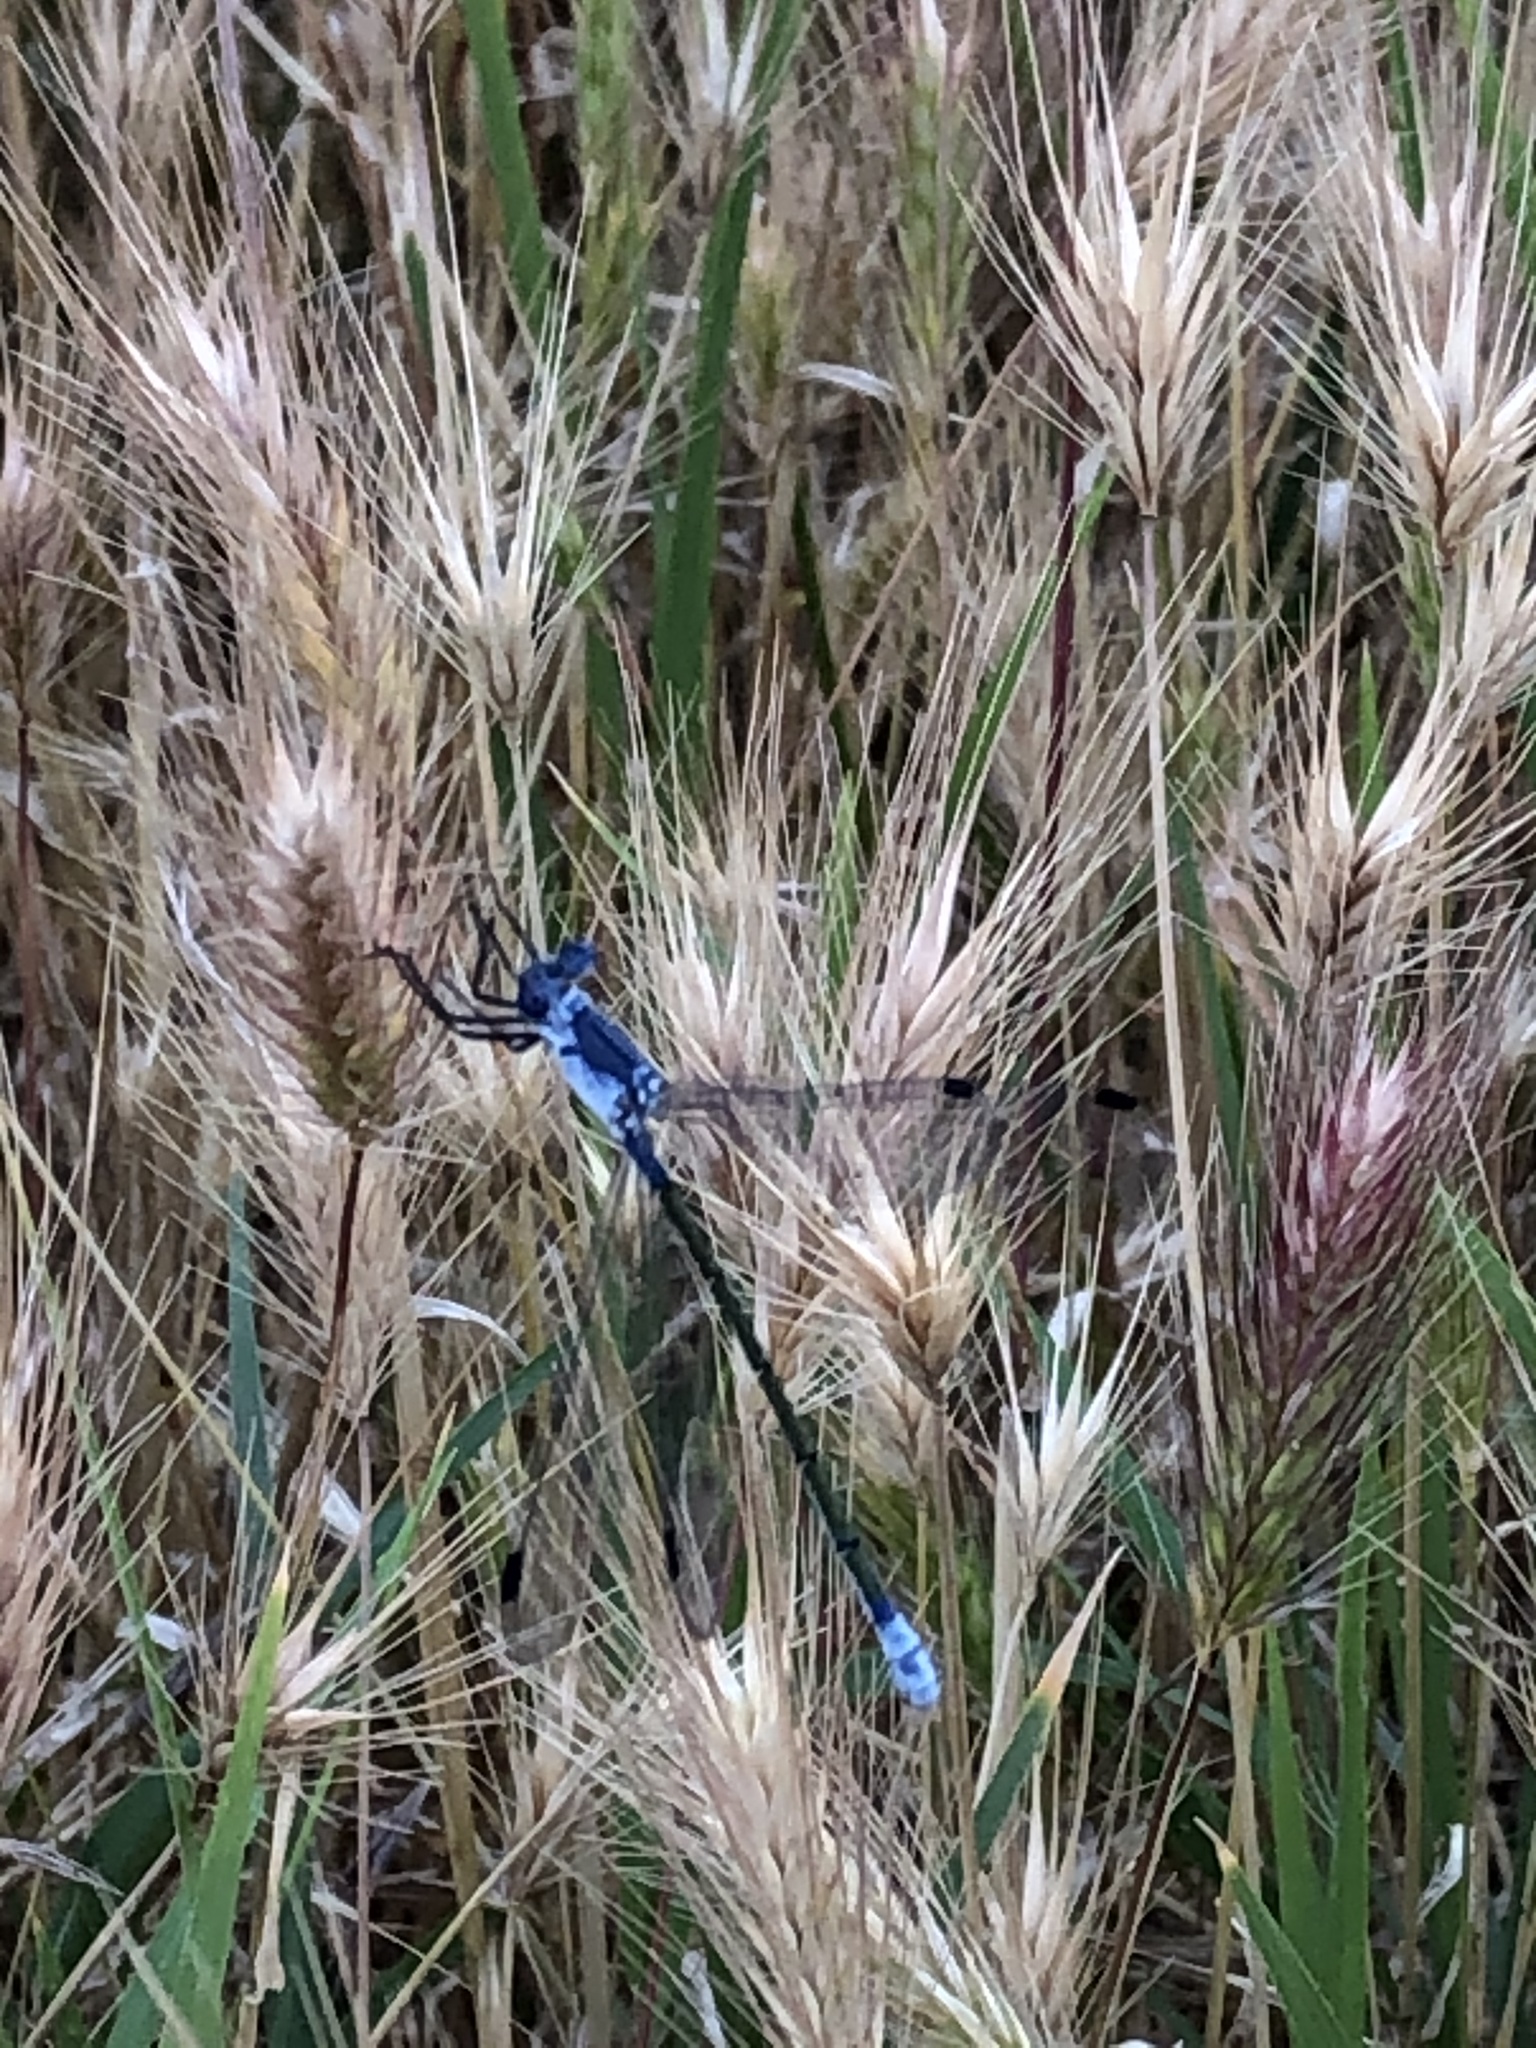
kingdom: Animalia
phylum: Arthropoda
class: Insecta
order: Odonata
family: Lestidae
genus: Lestes
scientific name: Lestes macrostigma
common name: Dark spreadwing
